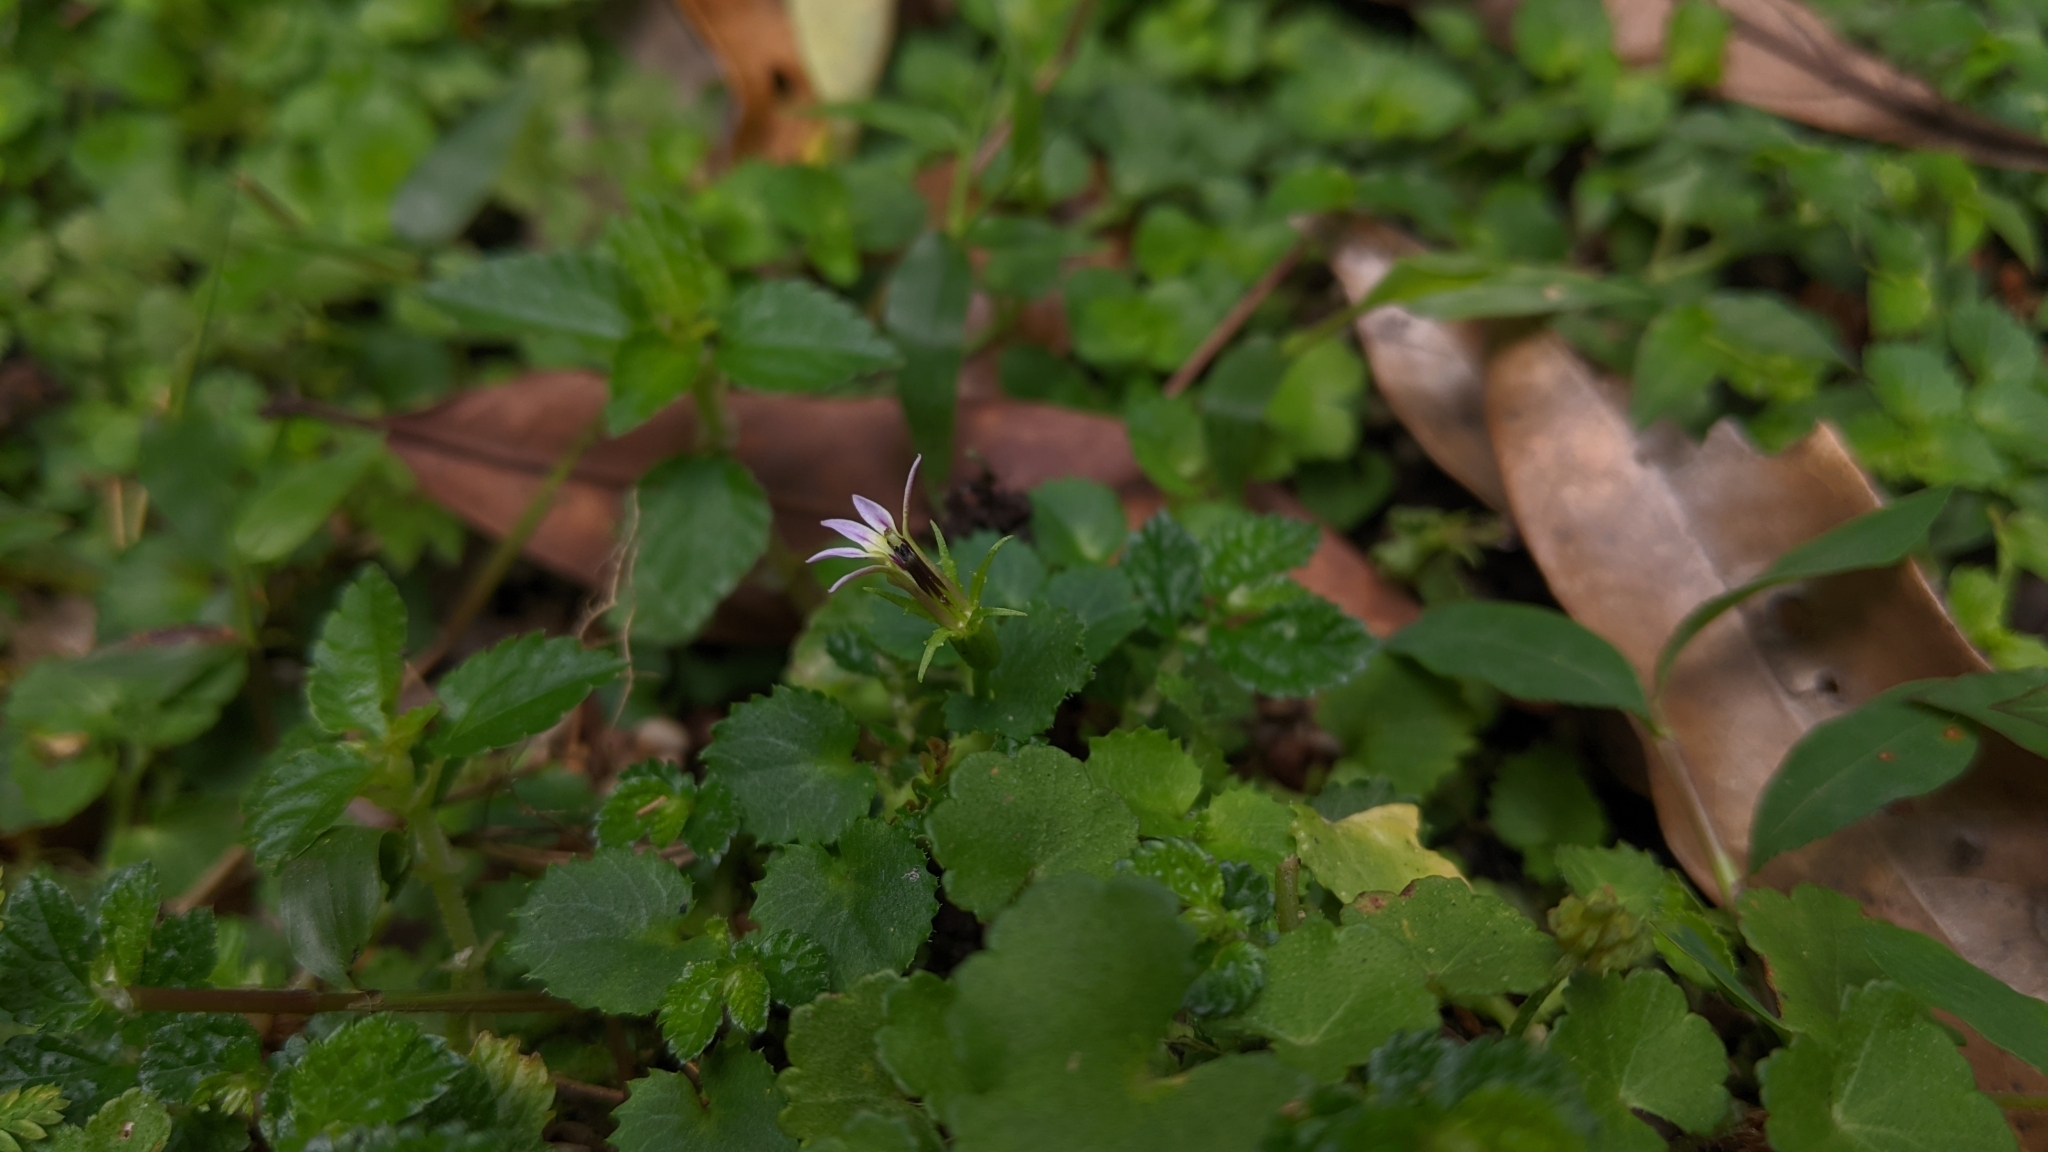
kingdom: Plantae
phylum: Tracheophyta
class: Magnoliopsida
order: Asterales
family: Campanulaceae
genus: Lobelia
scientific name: Lobelia nummularia
